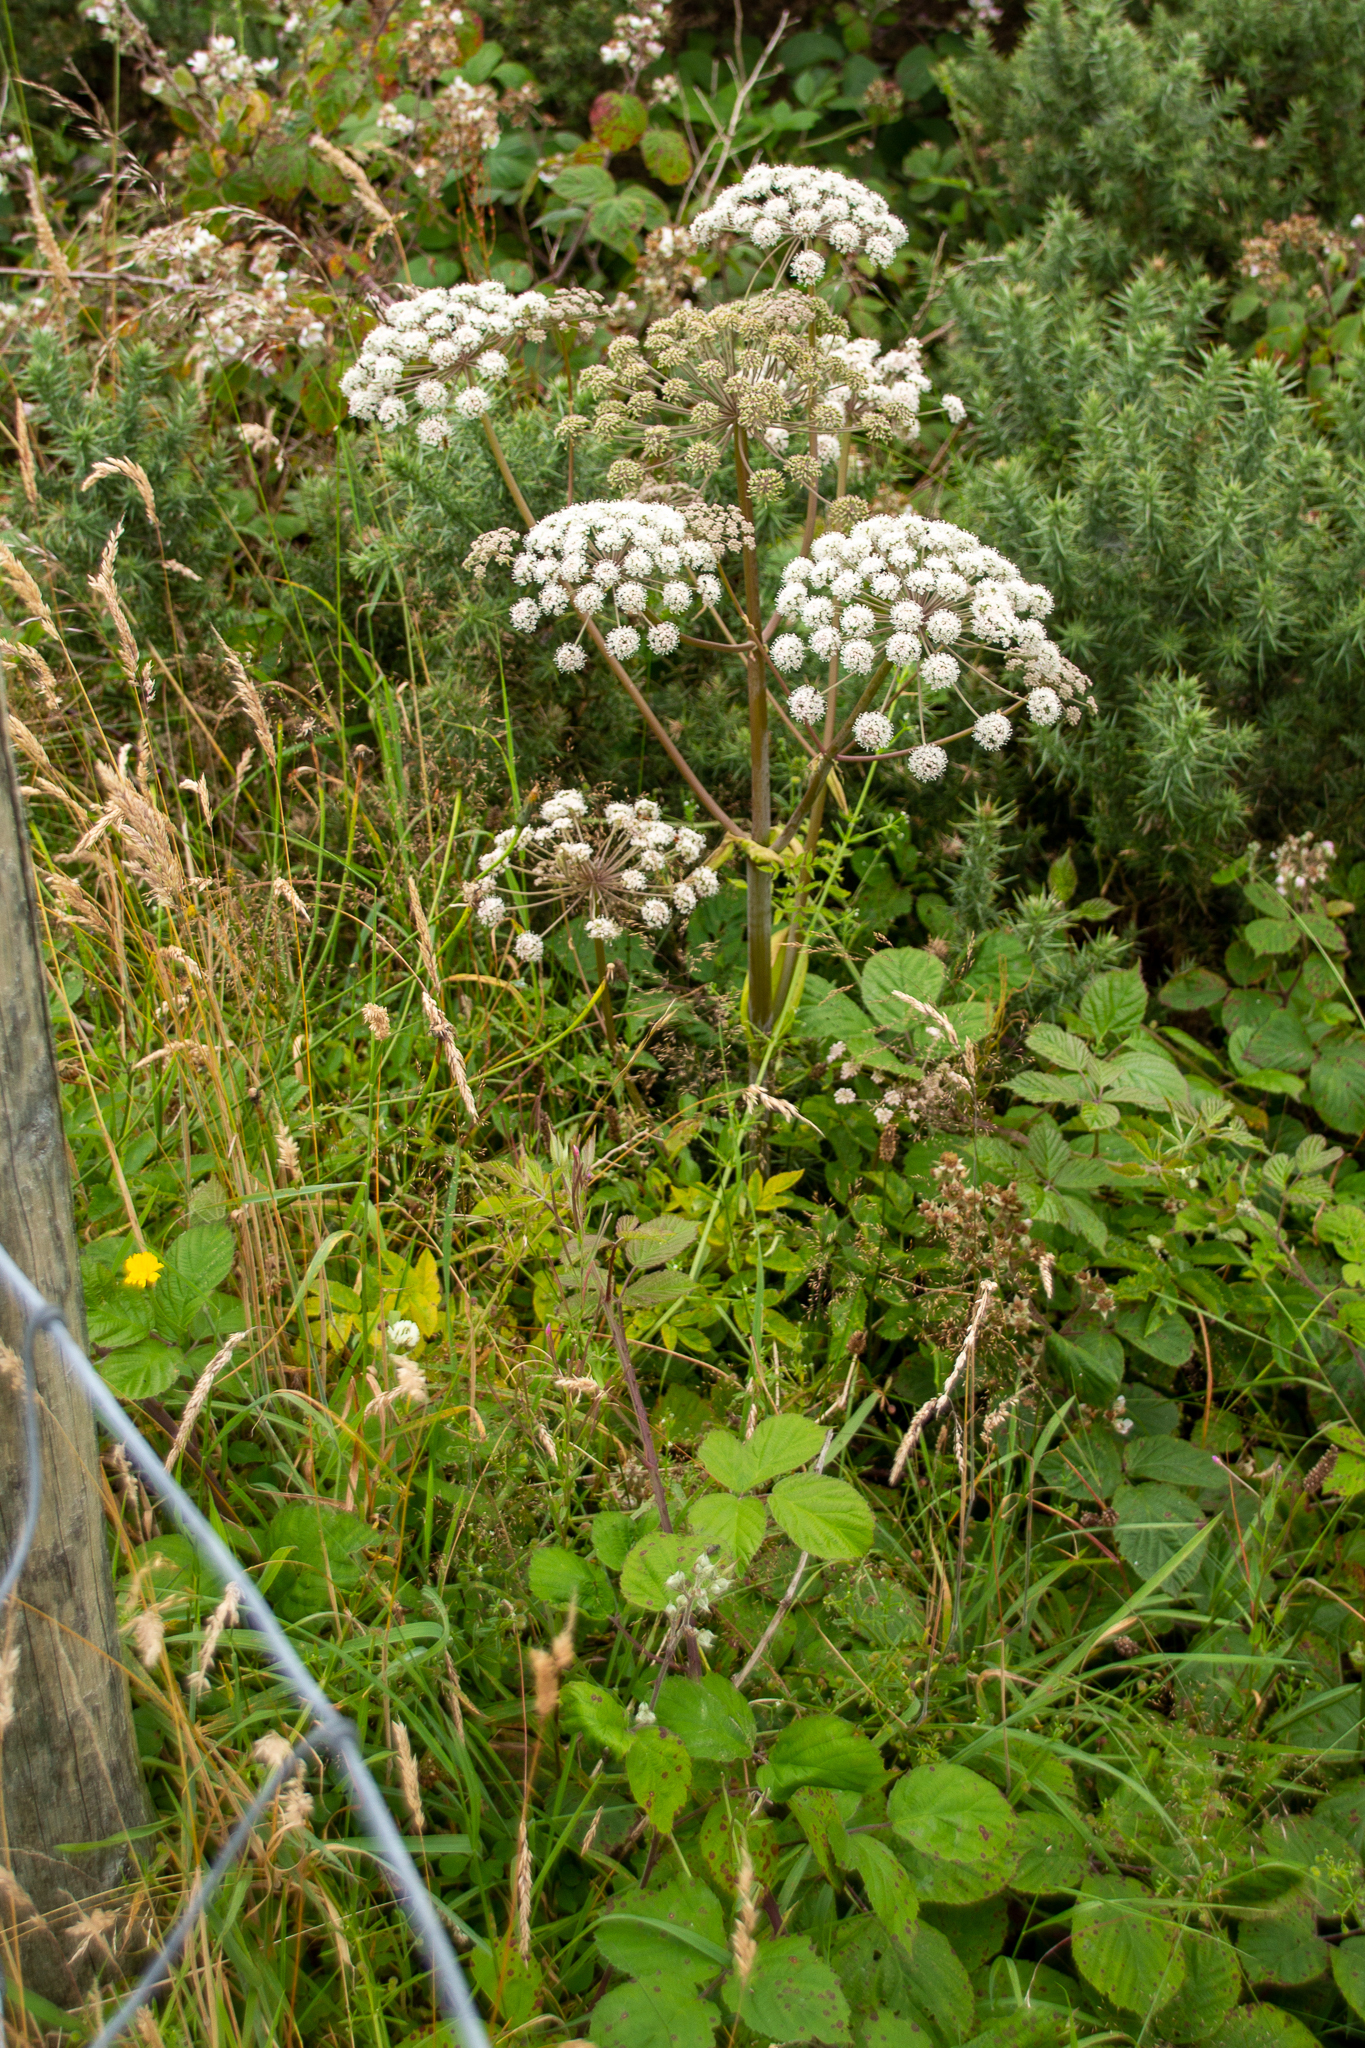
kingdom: Plantae
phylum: Tracheophyta
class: Magnoliopsida
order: Apiales
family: Apiaceae
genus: Angelica
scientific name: Angelica sylvestris
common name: Wild angelica
